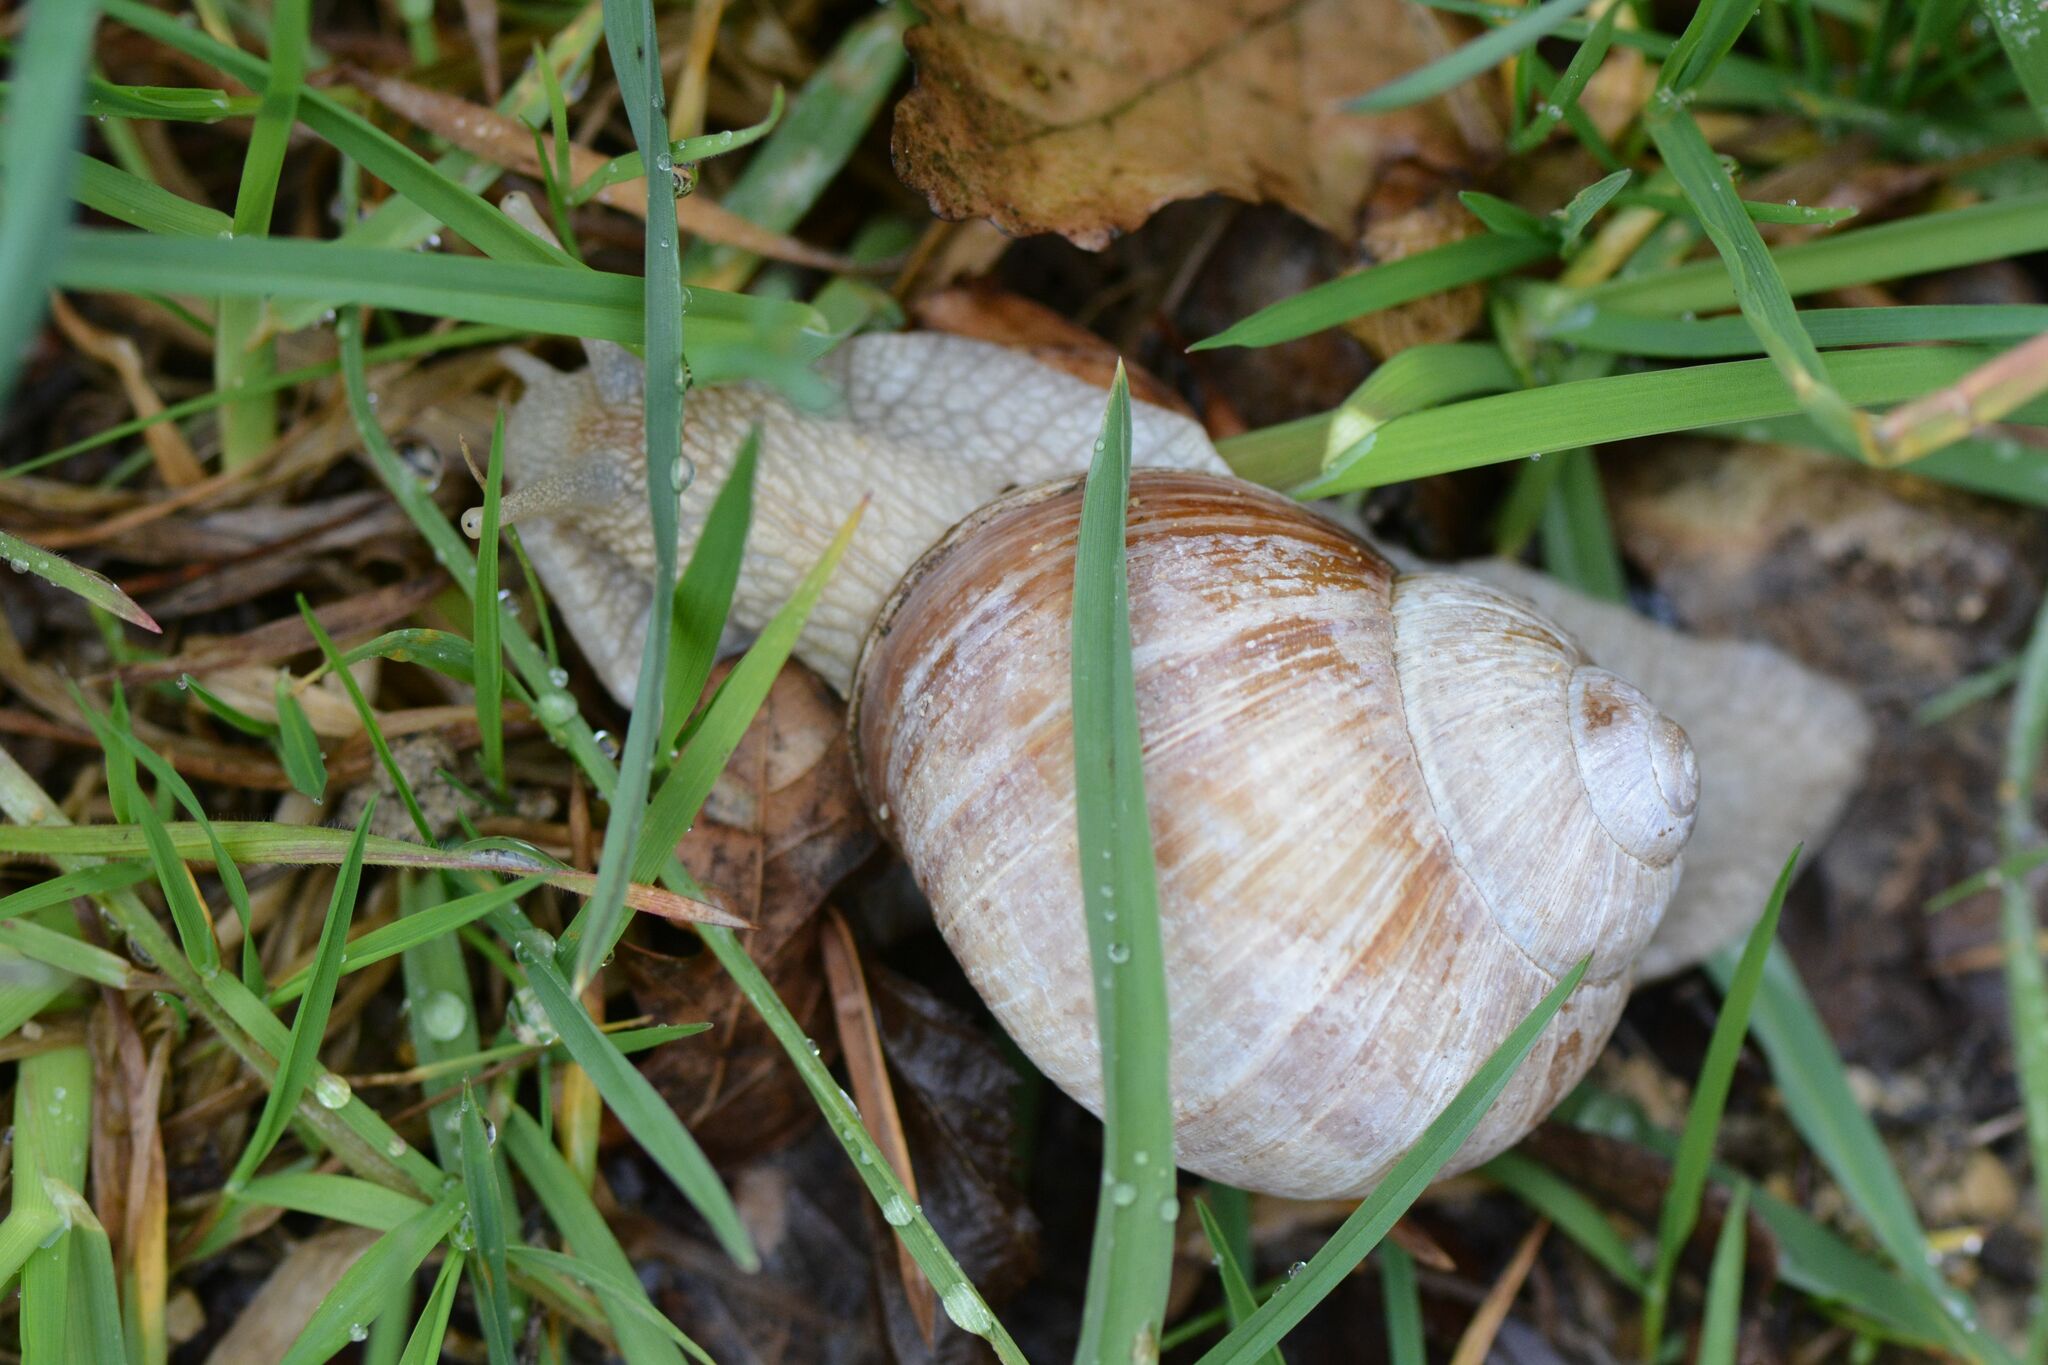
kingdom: Animalia
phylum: Mollusca
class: Gastropoda
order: Stylommatophora
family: Helicidae
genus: Helix
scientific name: Helix pomatia
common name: Roman snail
